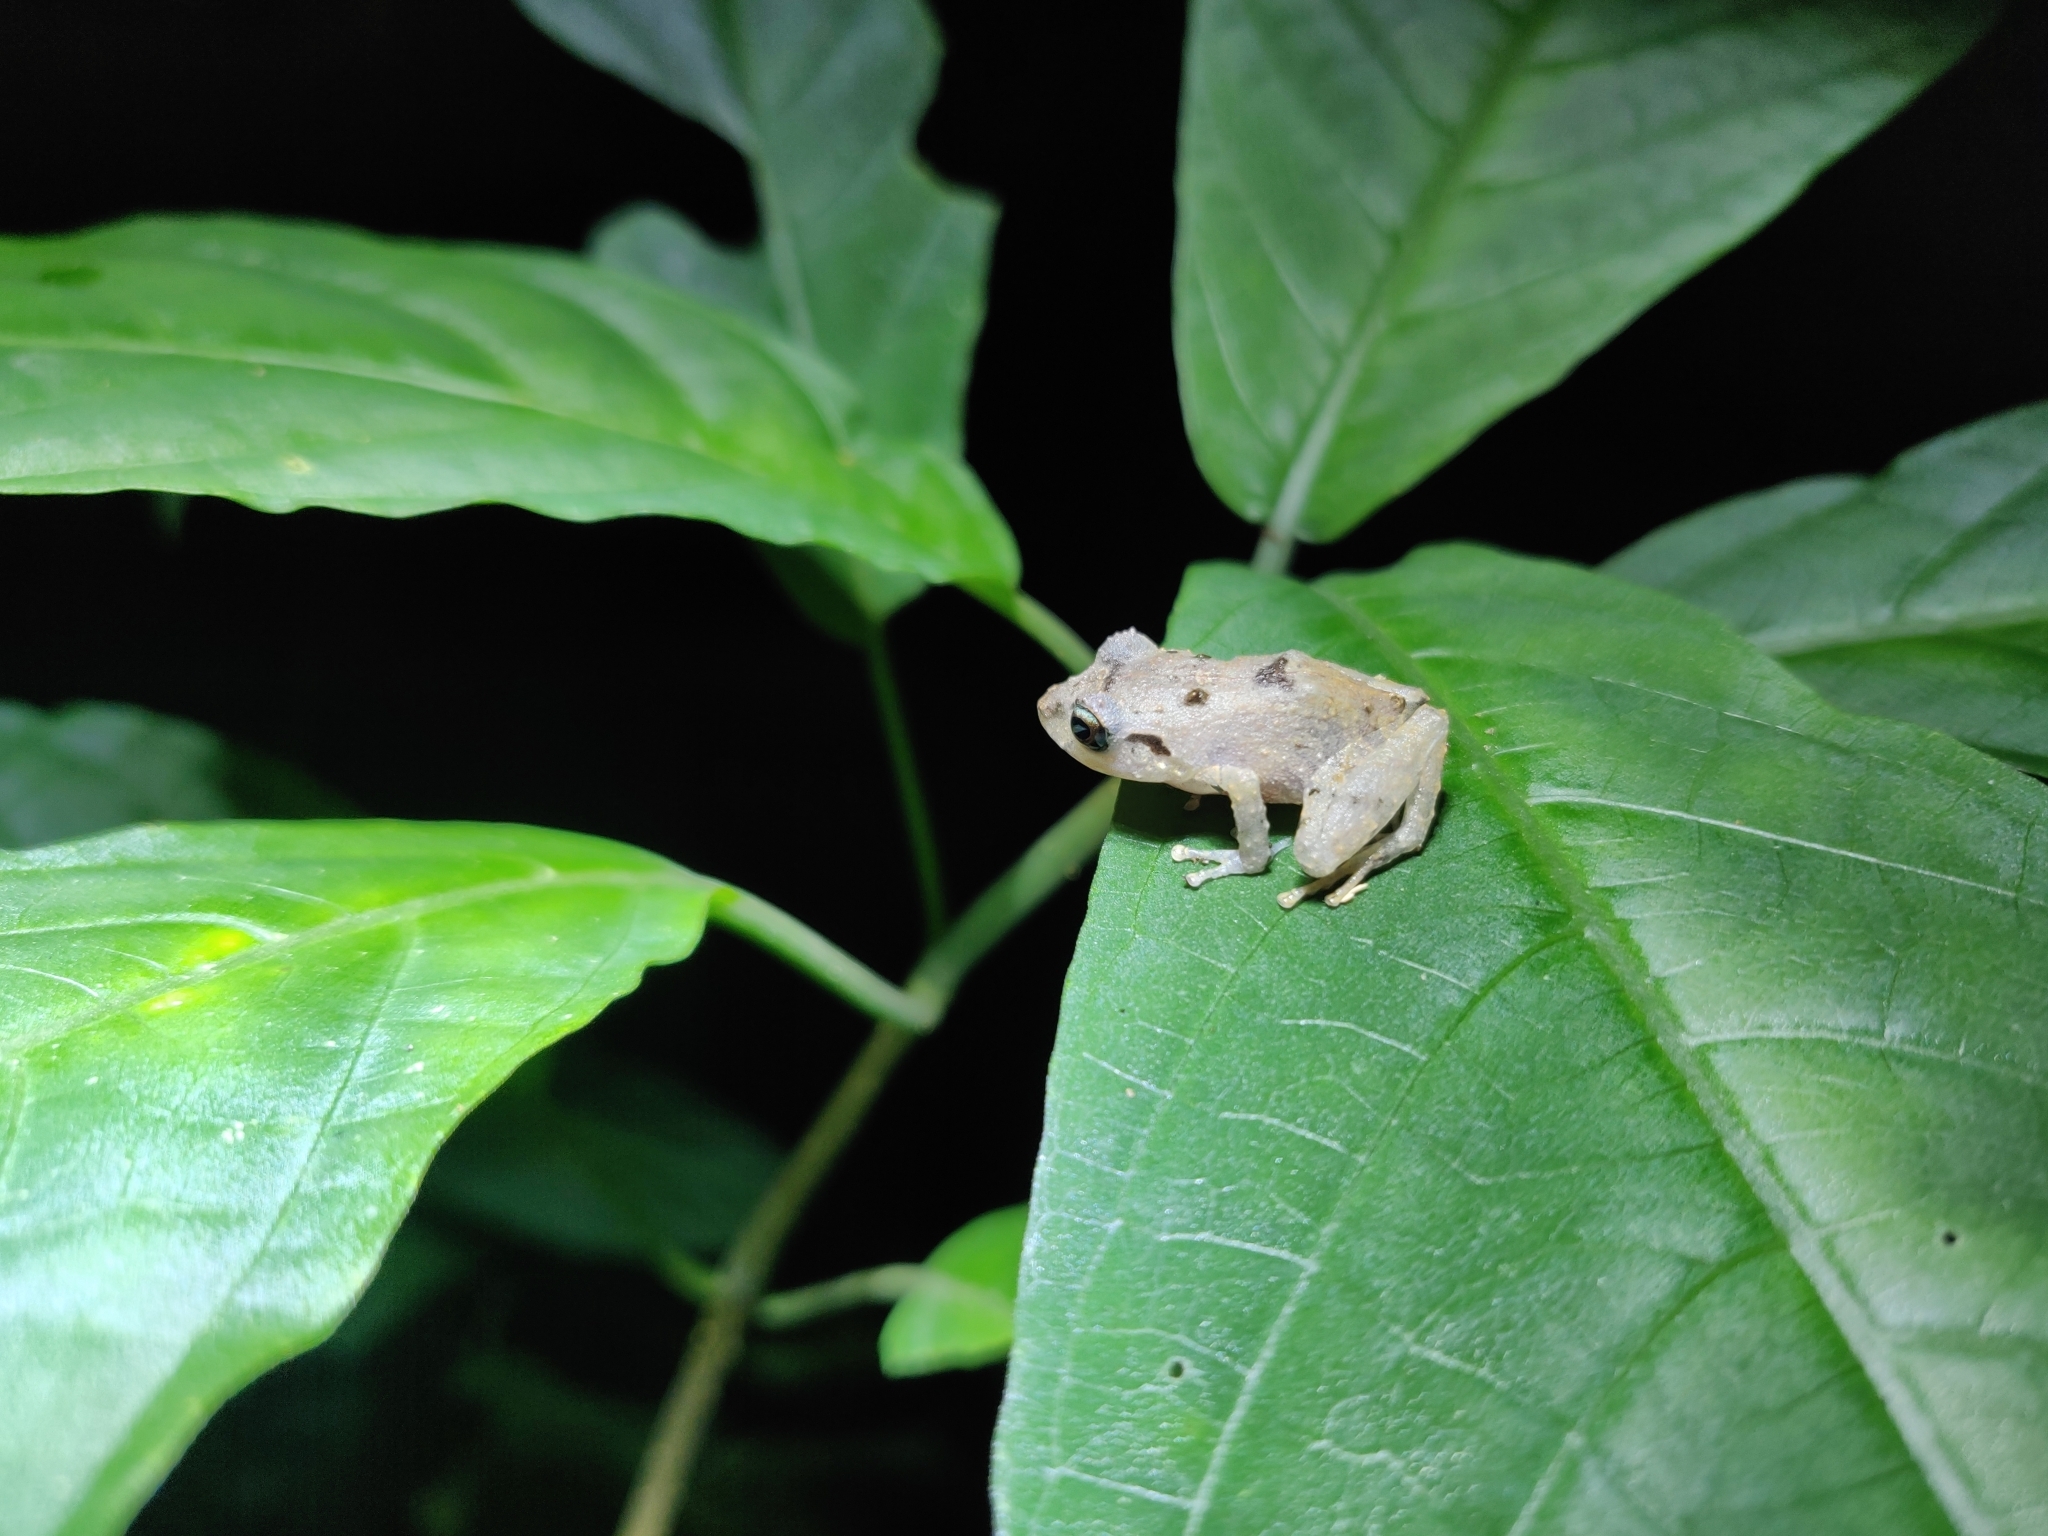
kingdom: Animalia
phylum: Chordata
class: Amphibia
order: Anura
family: Craugastoridae
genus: Pristimantis
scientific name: Pristimantis urichi
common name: Lesser antilles robber frog
